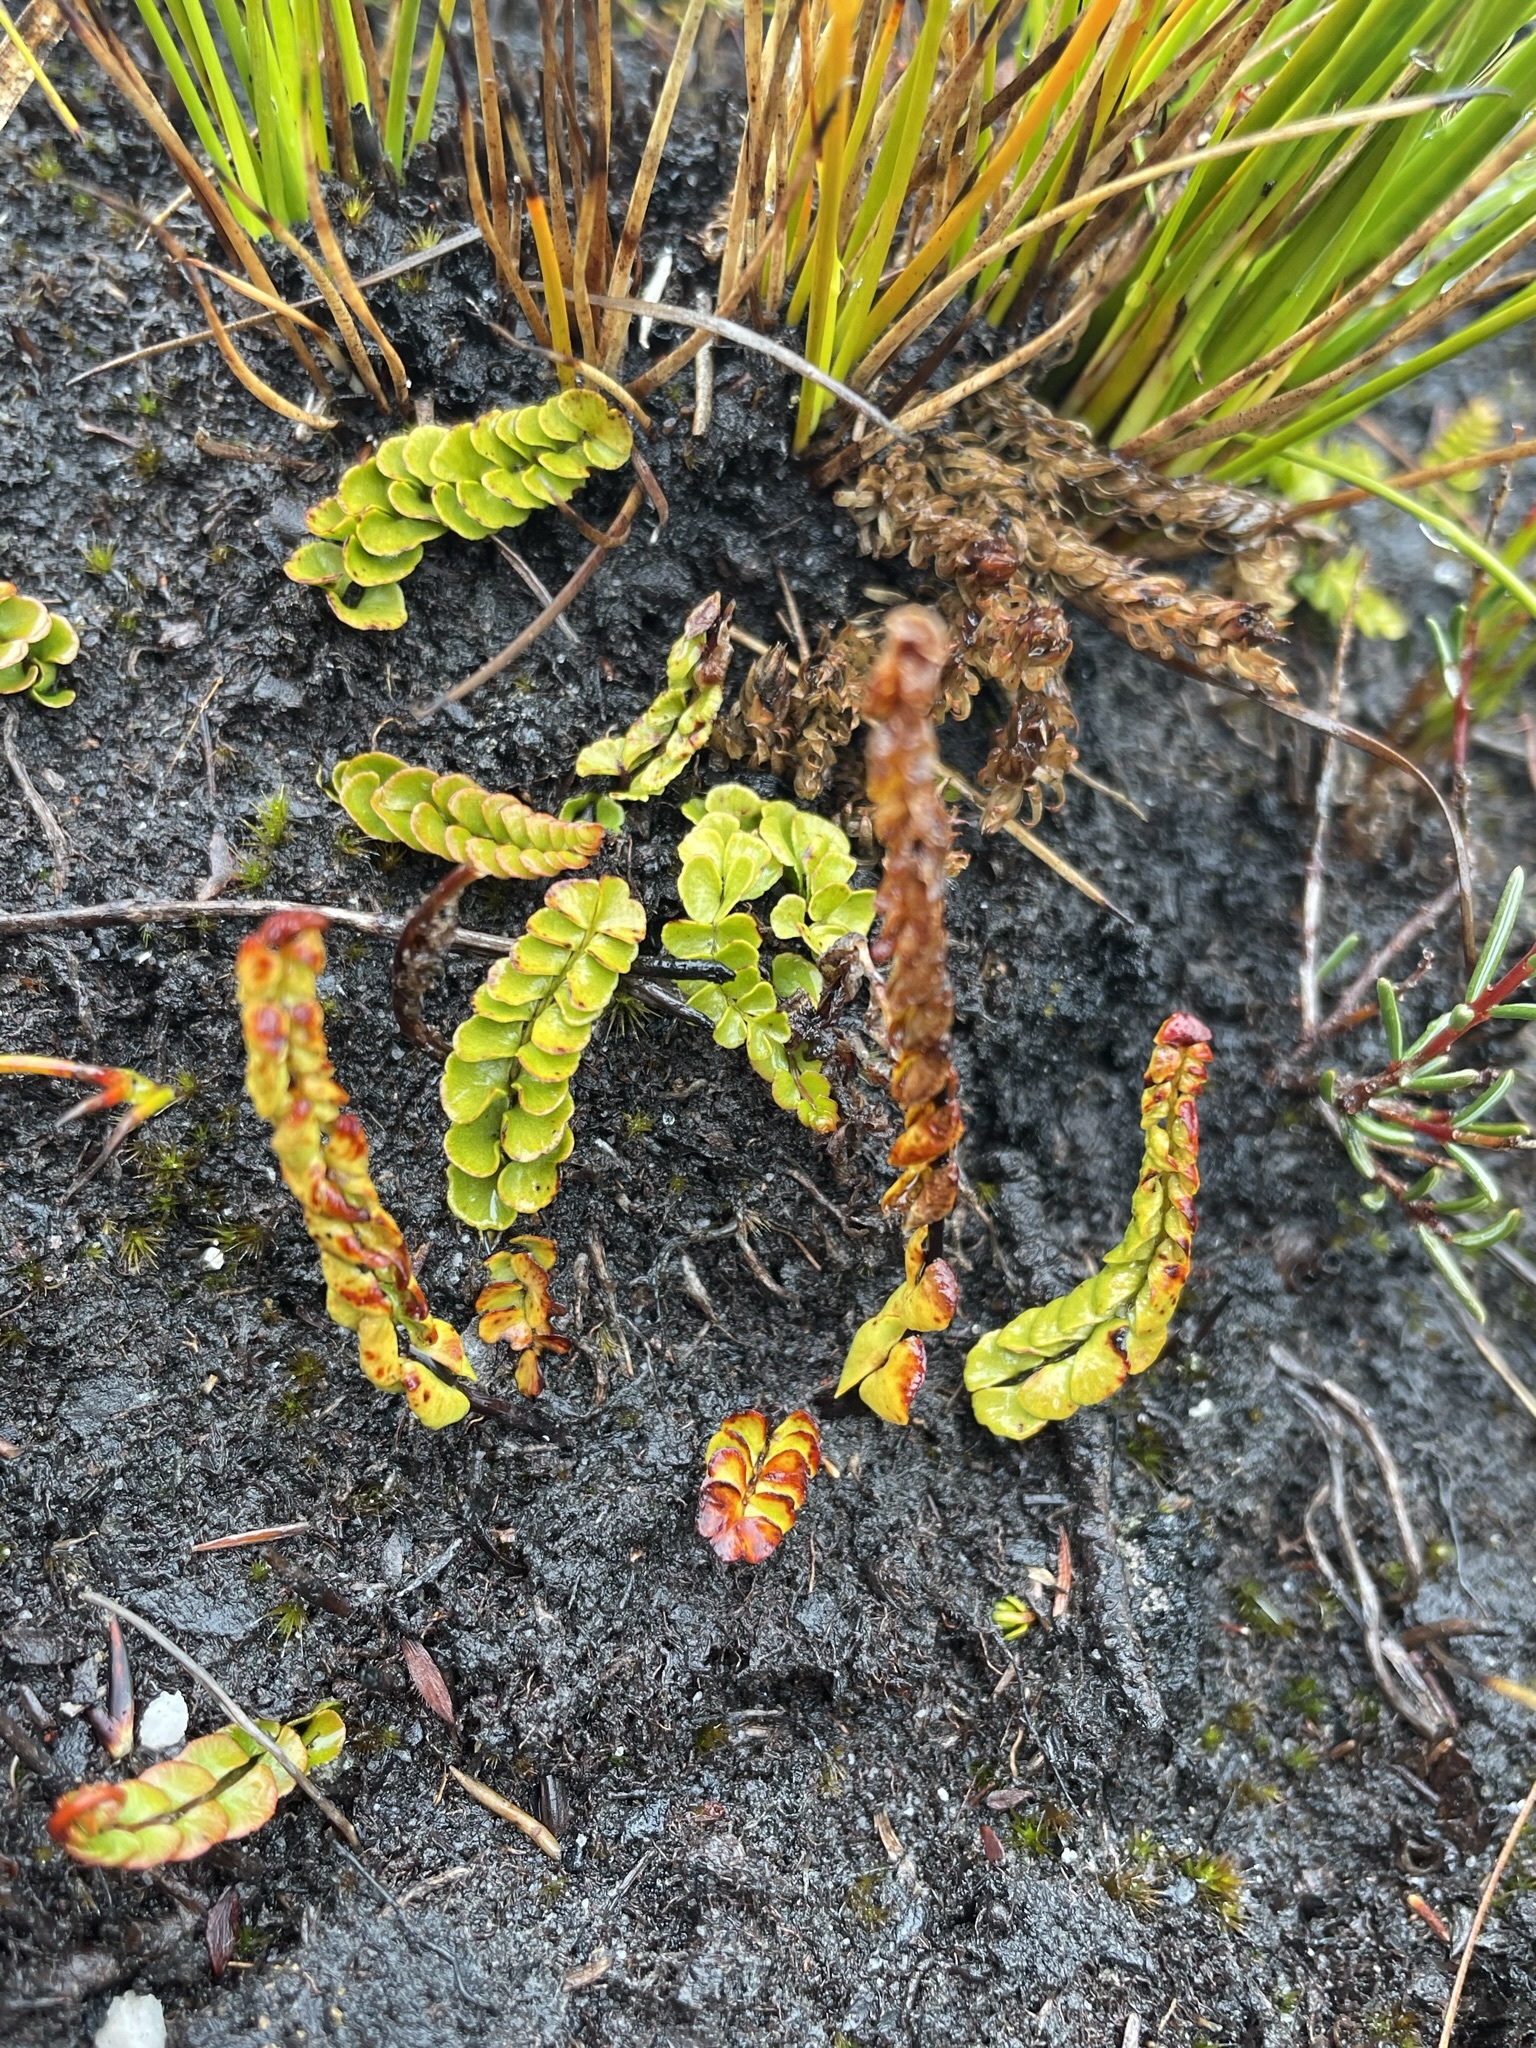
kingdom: Plantae
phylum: Tracheophyta
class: Polypodiopsida
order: Polypodiales
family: Lindsaeaceae
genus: Lindsaea
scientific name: Lindsaea linearis
